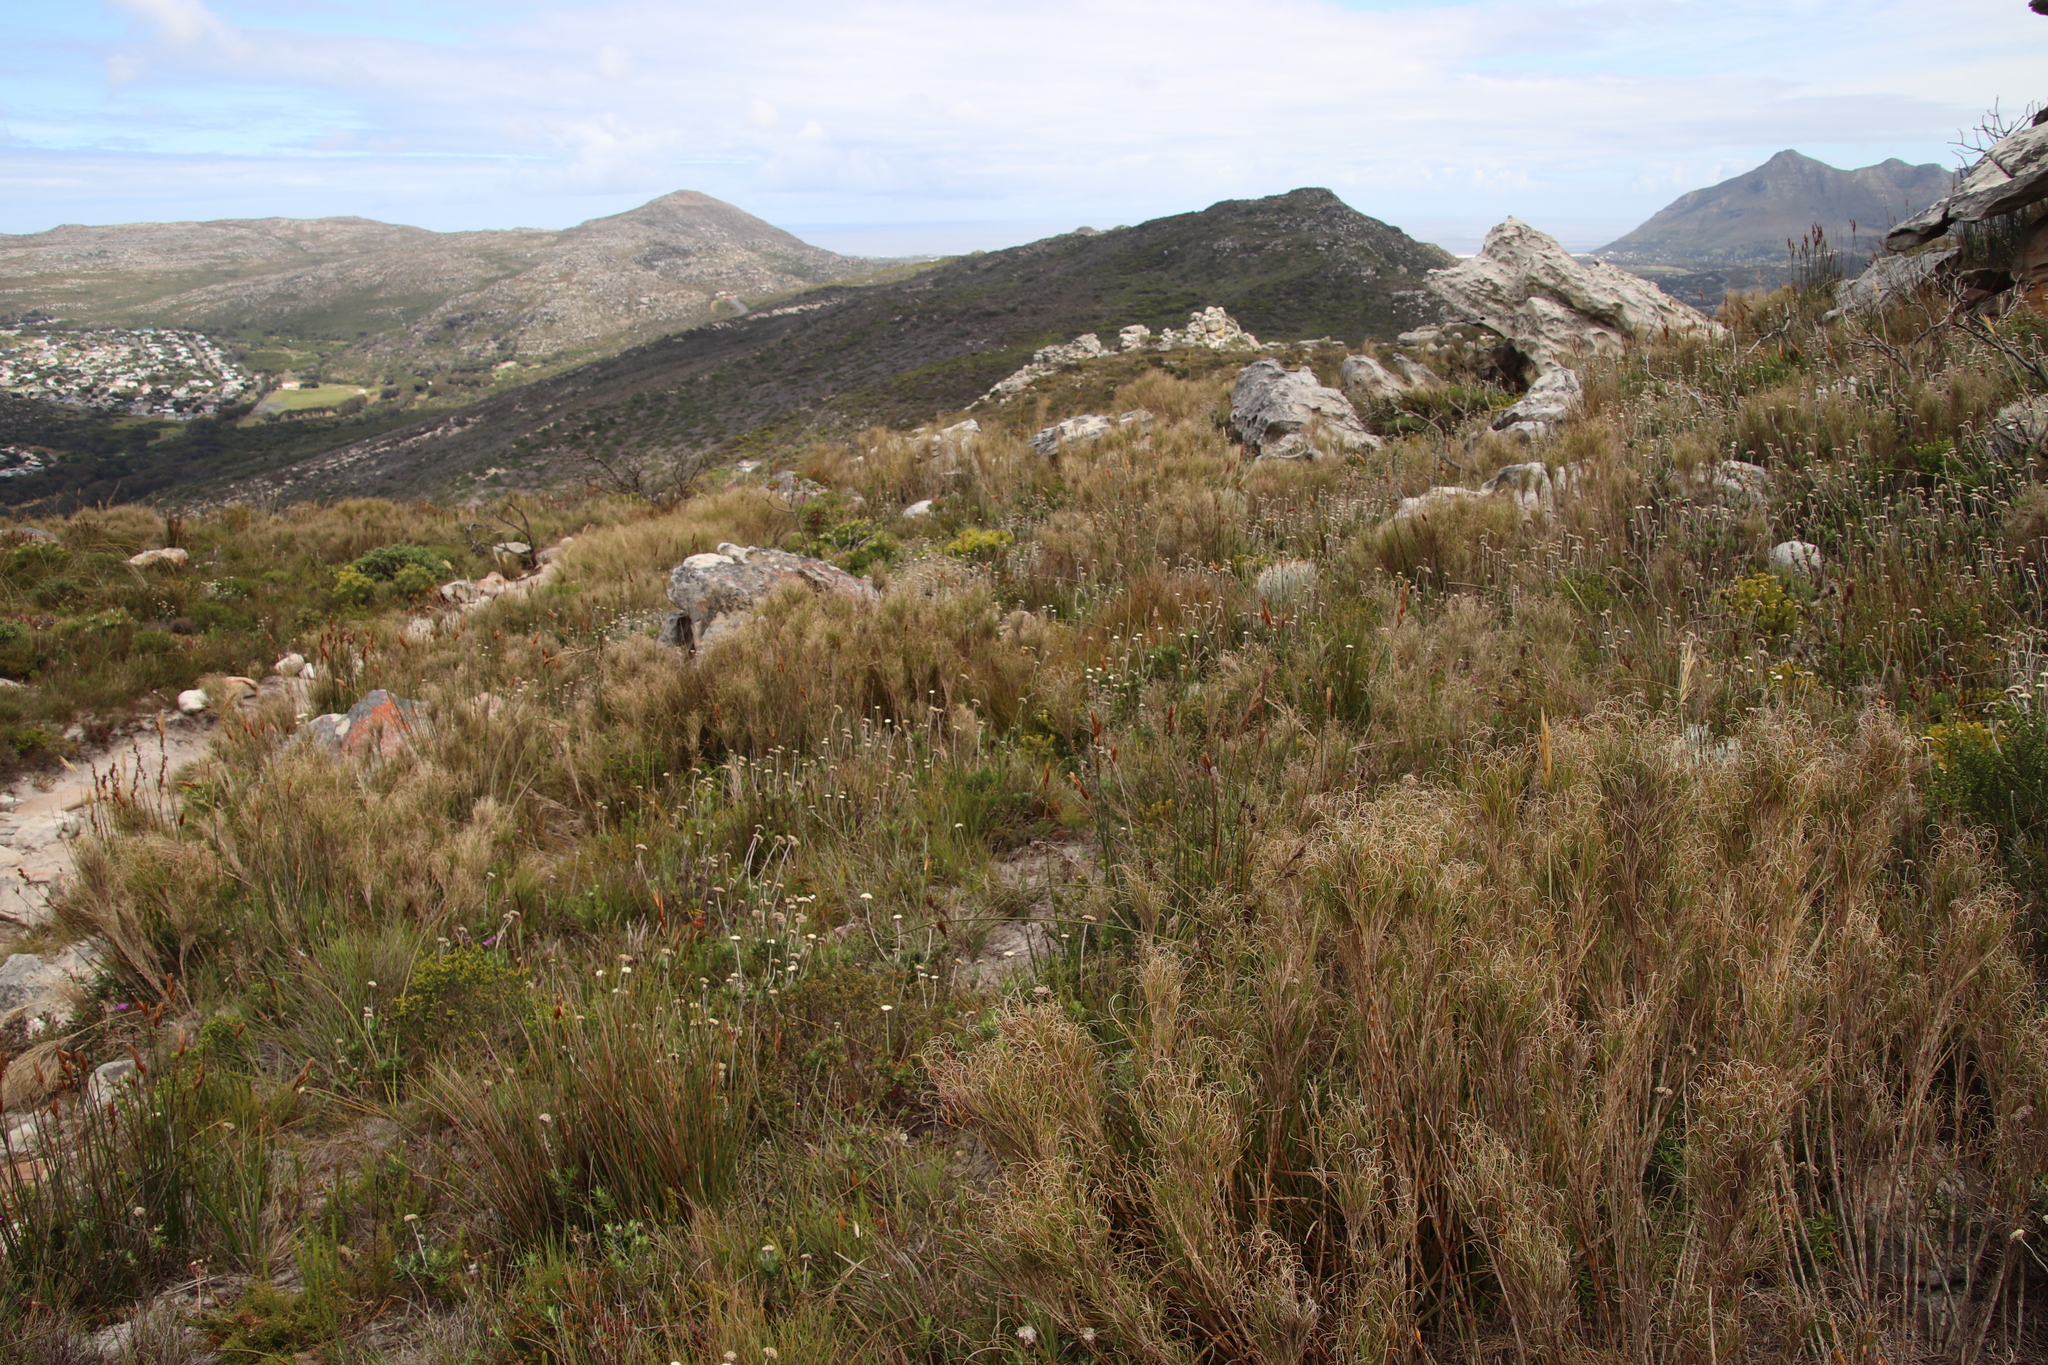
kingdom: Plantae
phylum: Tracheophyta
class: Liliopsida
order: Poales
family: Poaceae
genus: Pseudopentameris
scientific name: Pseudopentameris macrantha
